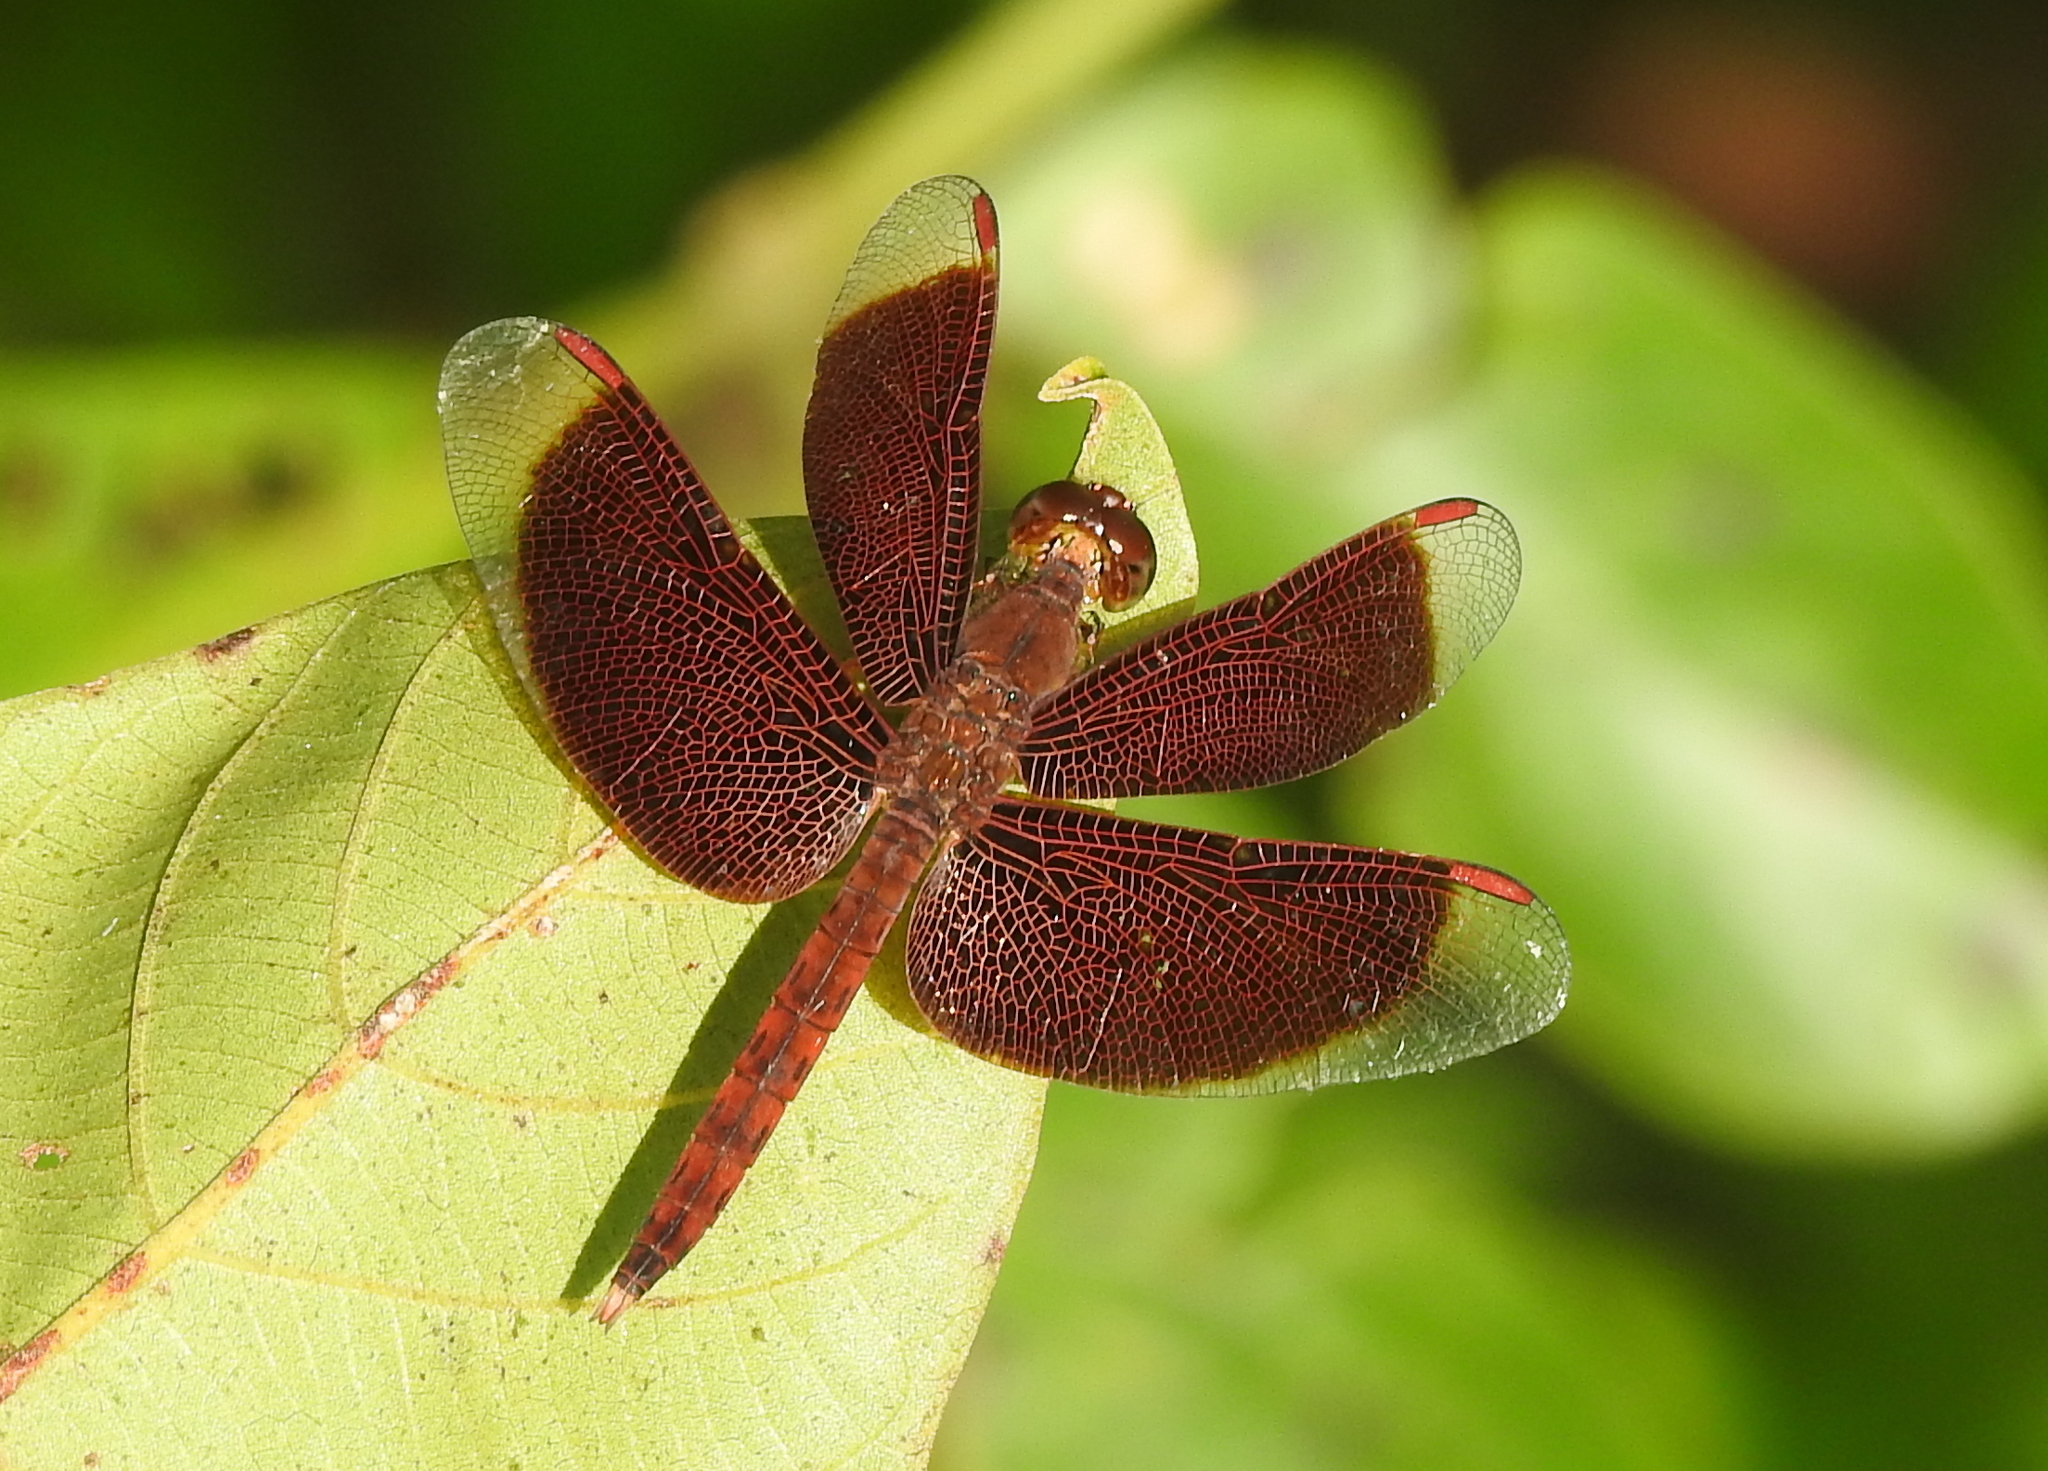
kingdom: Animalia
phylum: Arthropoda
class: Insecta
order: Odonata
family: Libellulidae
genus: Neurothemis
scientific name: Neurothemis fluctuans
